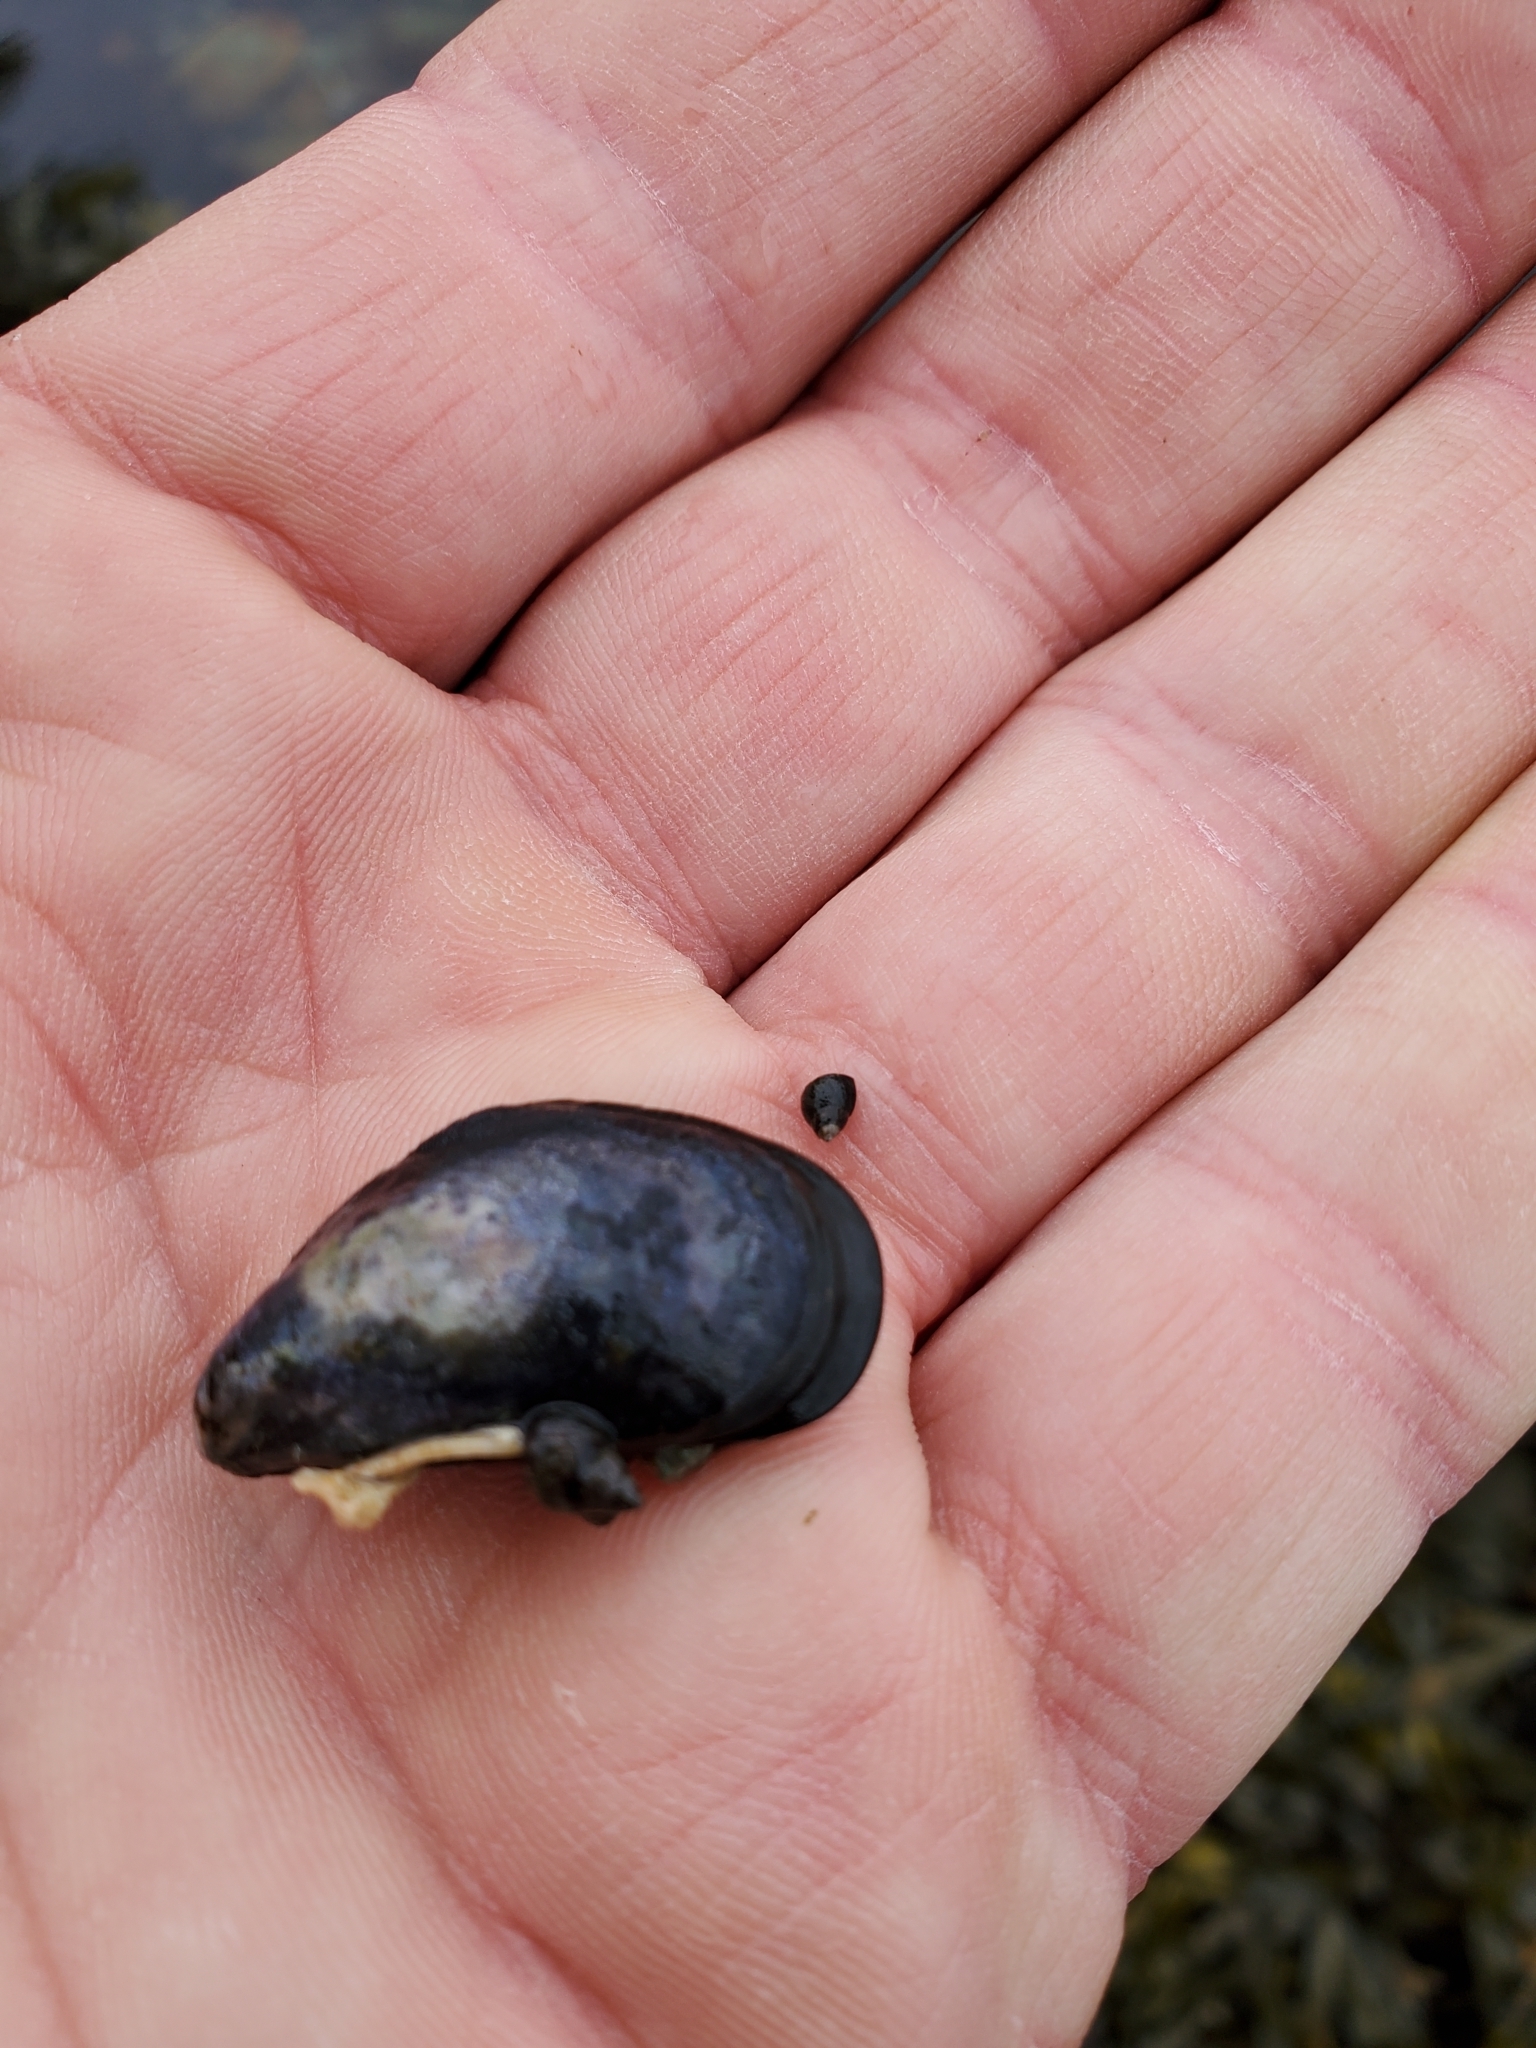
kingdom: Animalia
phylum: Mollusca
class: Bivalvia
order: Mytilida
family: Mytilidae
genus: Mytilus
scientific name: Mytilus
